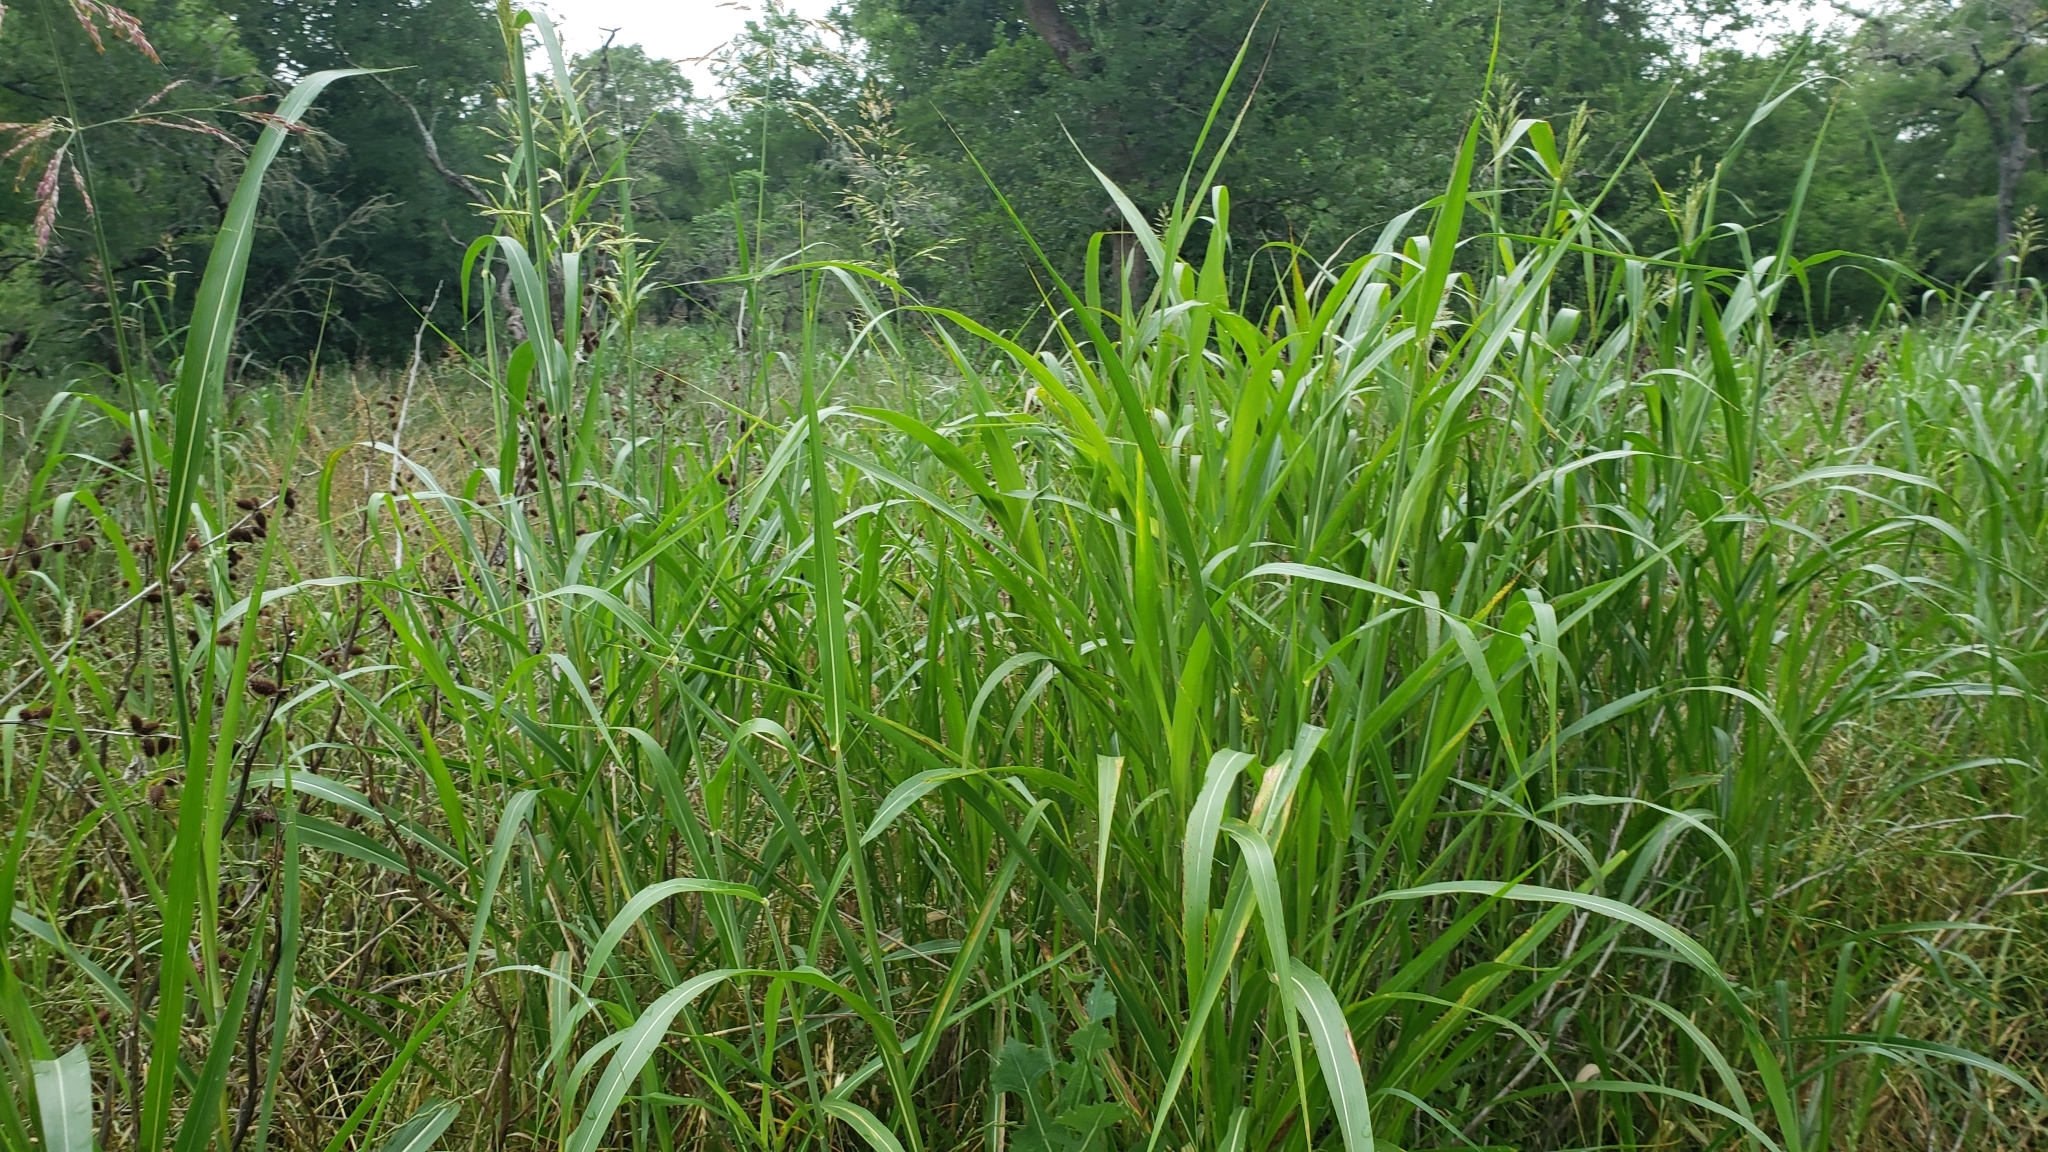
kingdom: Plantae
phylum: Tracheophyta
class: Liliopsida
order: Poales
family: Poaceae
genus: Sorghum
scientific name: Sorghum halepense
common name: Johnson-grass
